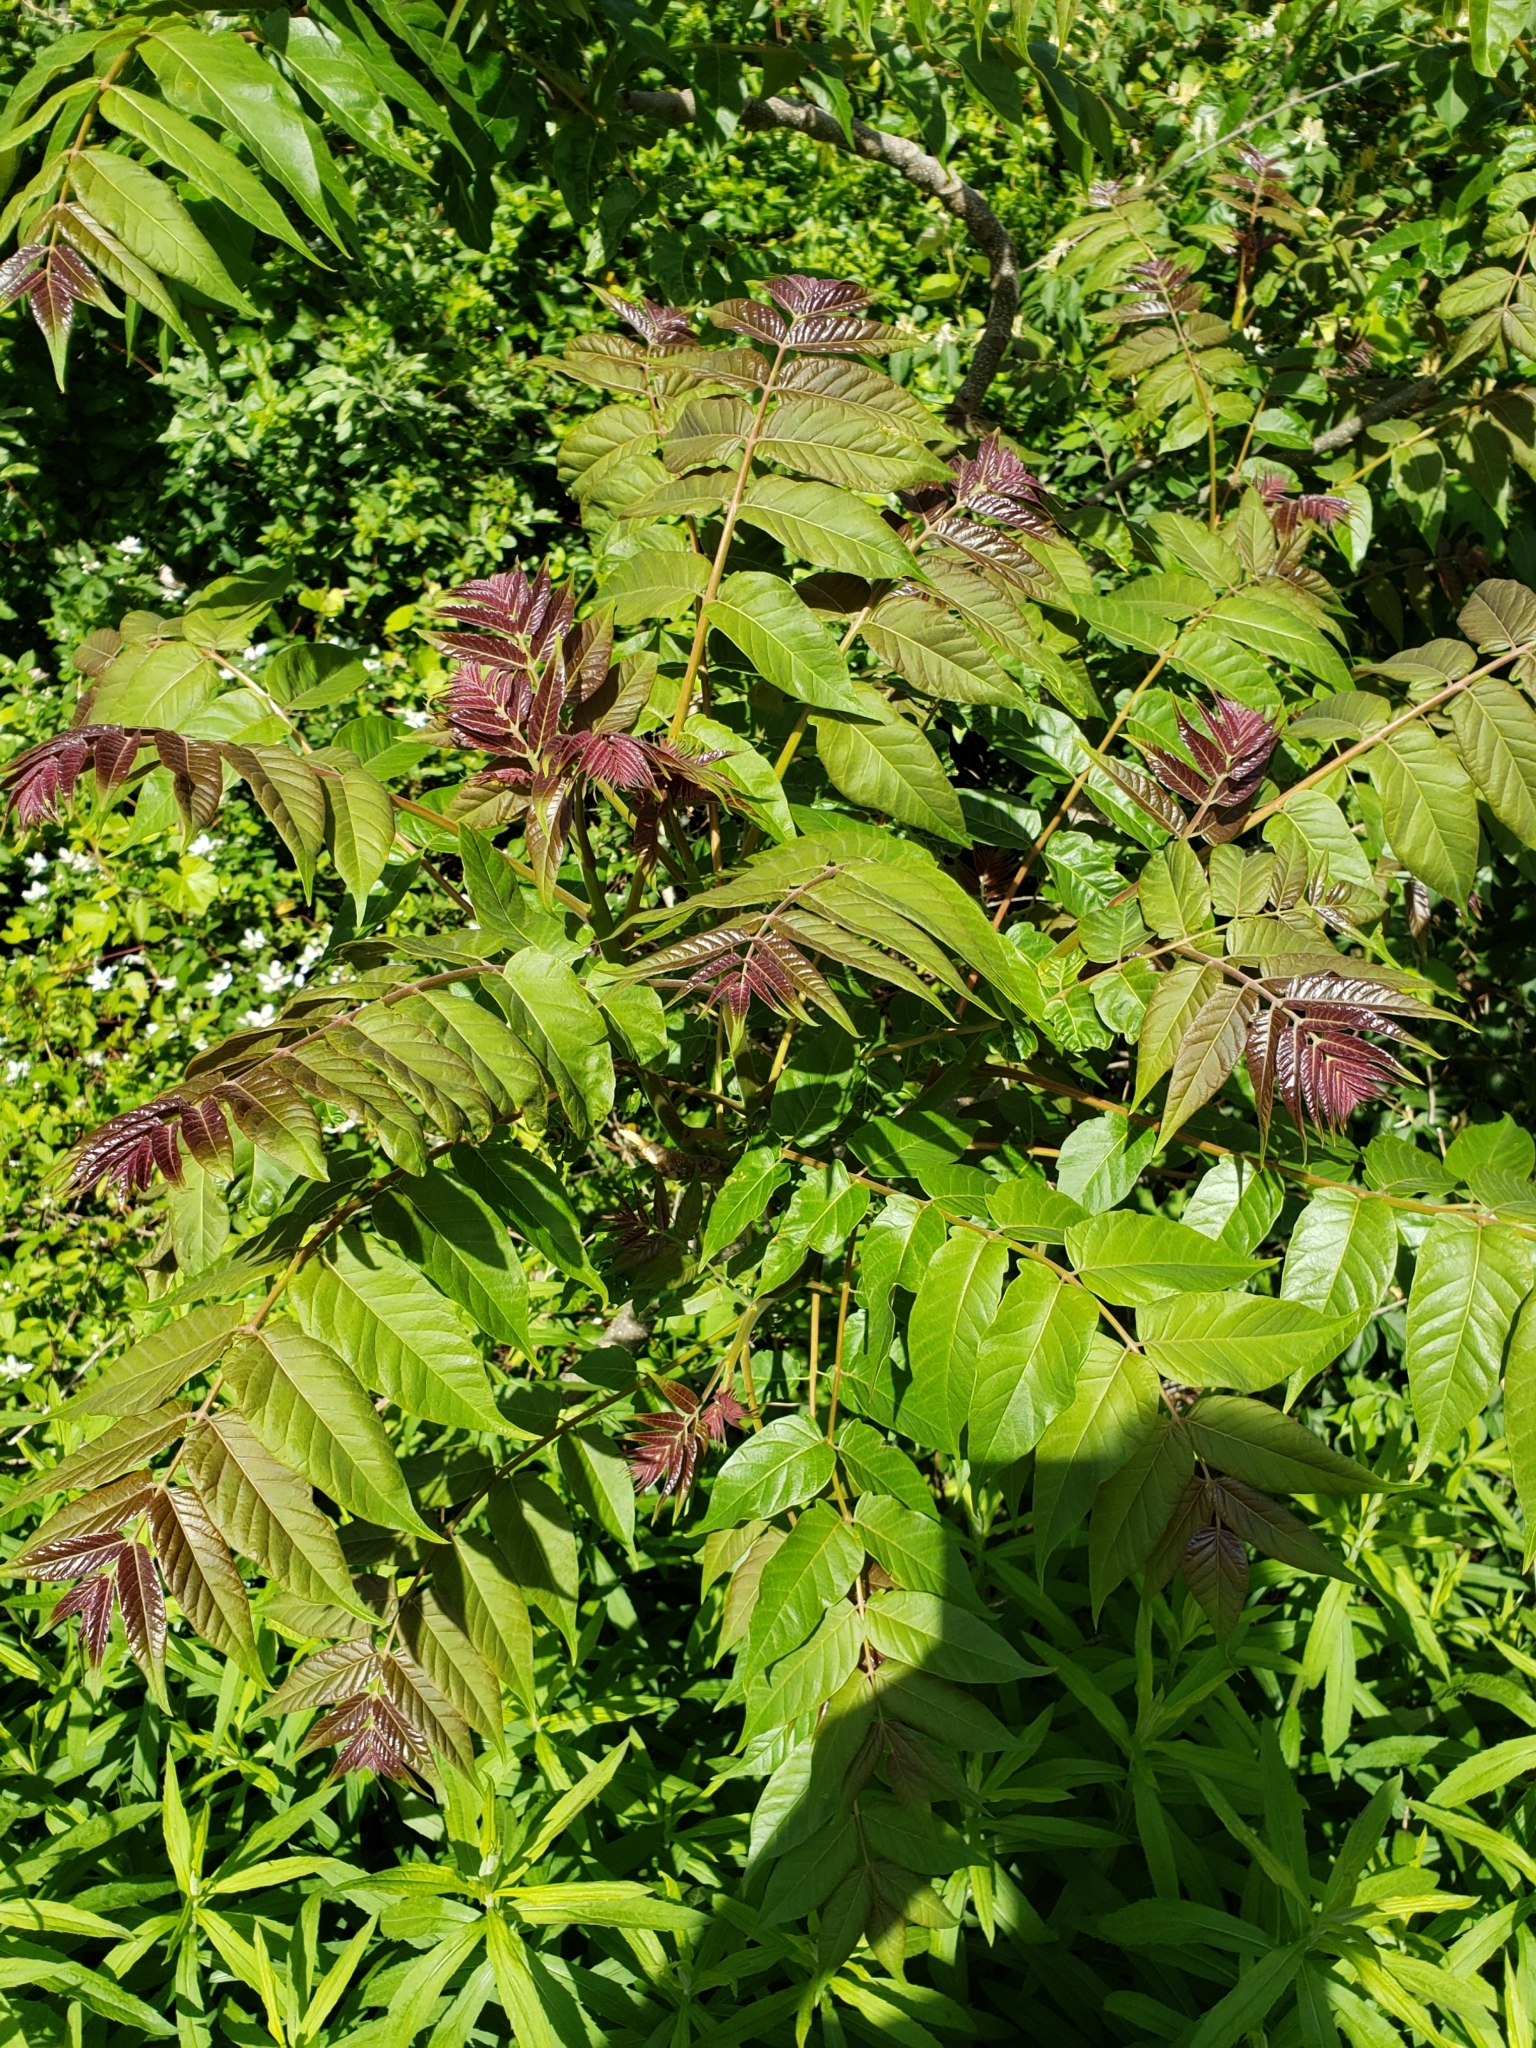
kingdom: Plantae
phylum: Tracheophyta
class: Magnoliopsida
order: Sapindales
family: Simaroubaceae
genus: Ailanthus
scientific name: Ailanthus altissima
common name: Tree-of-heaven
